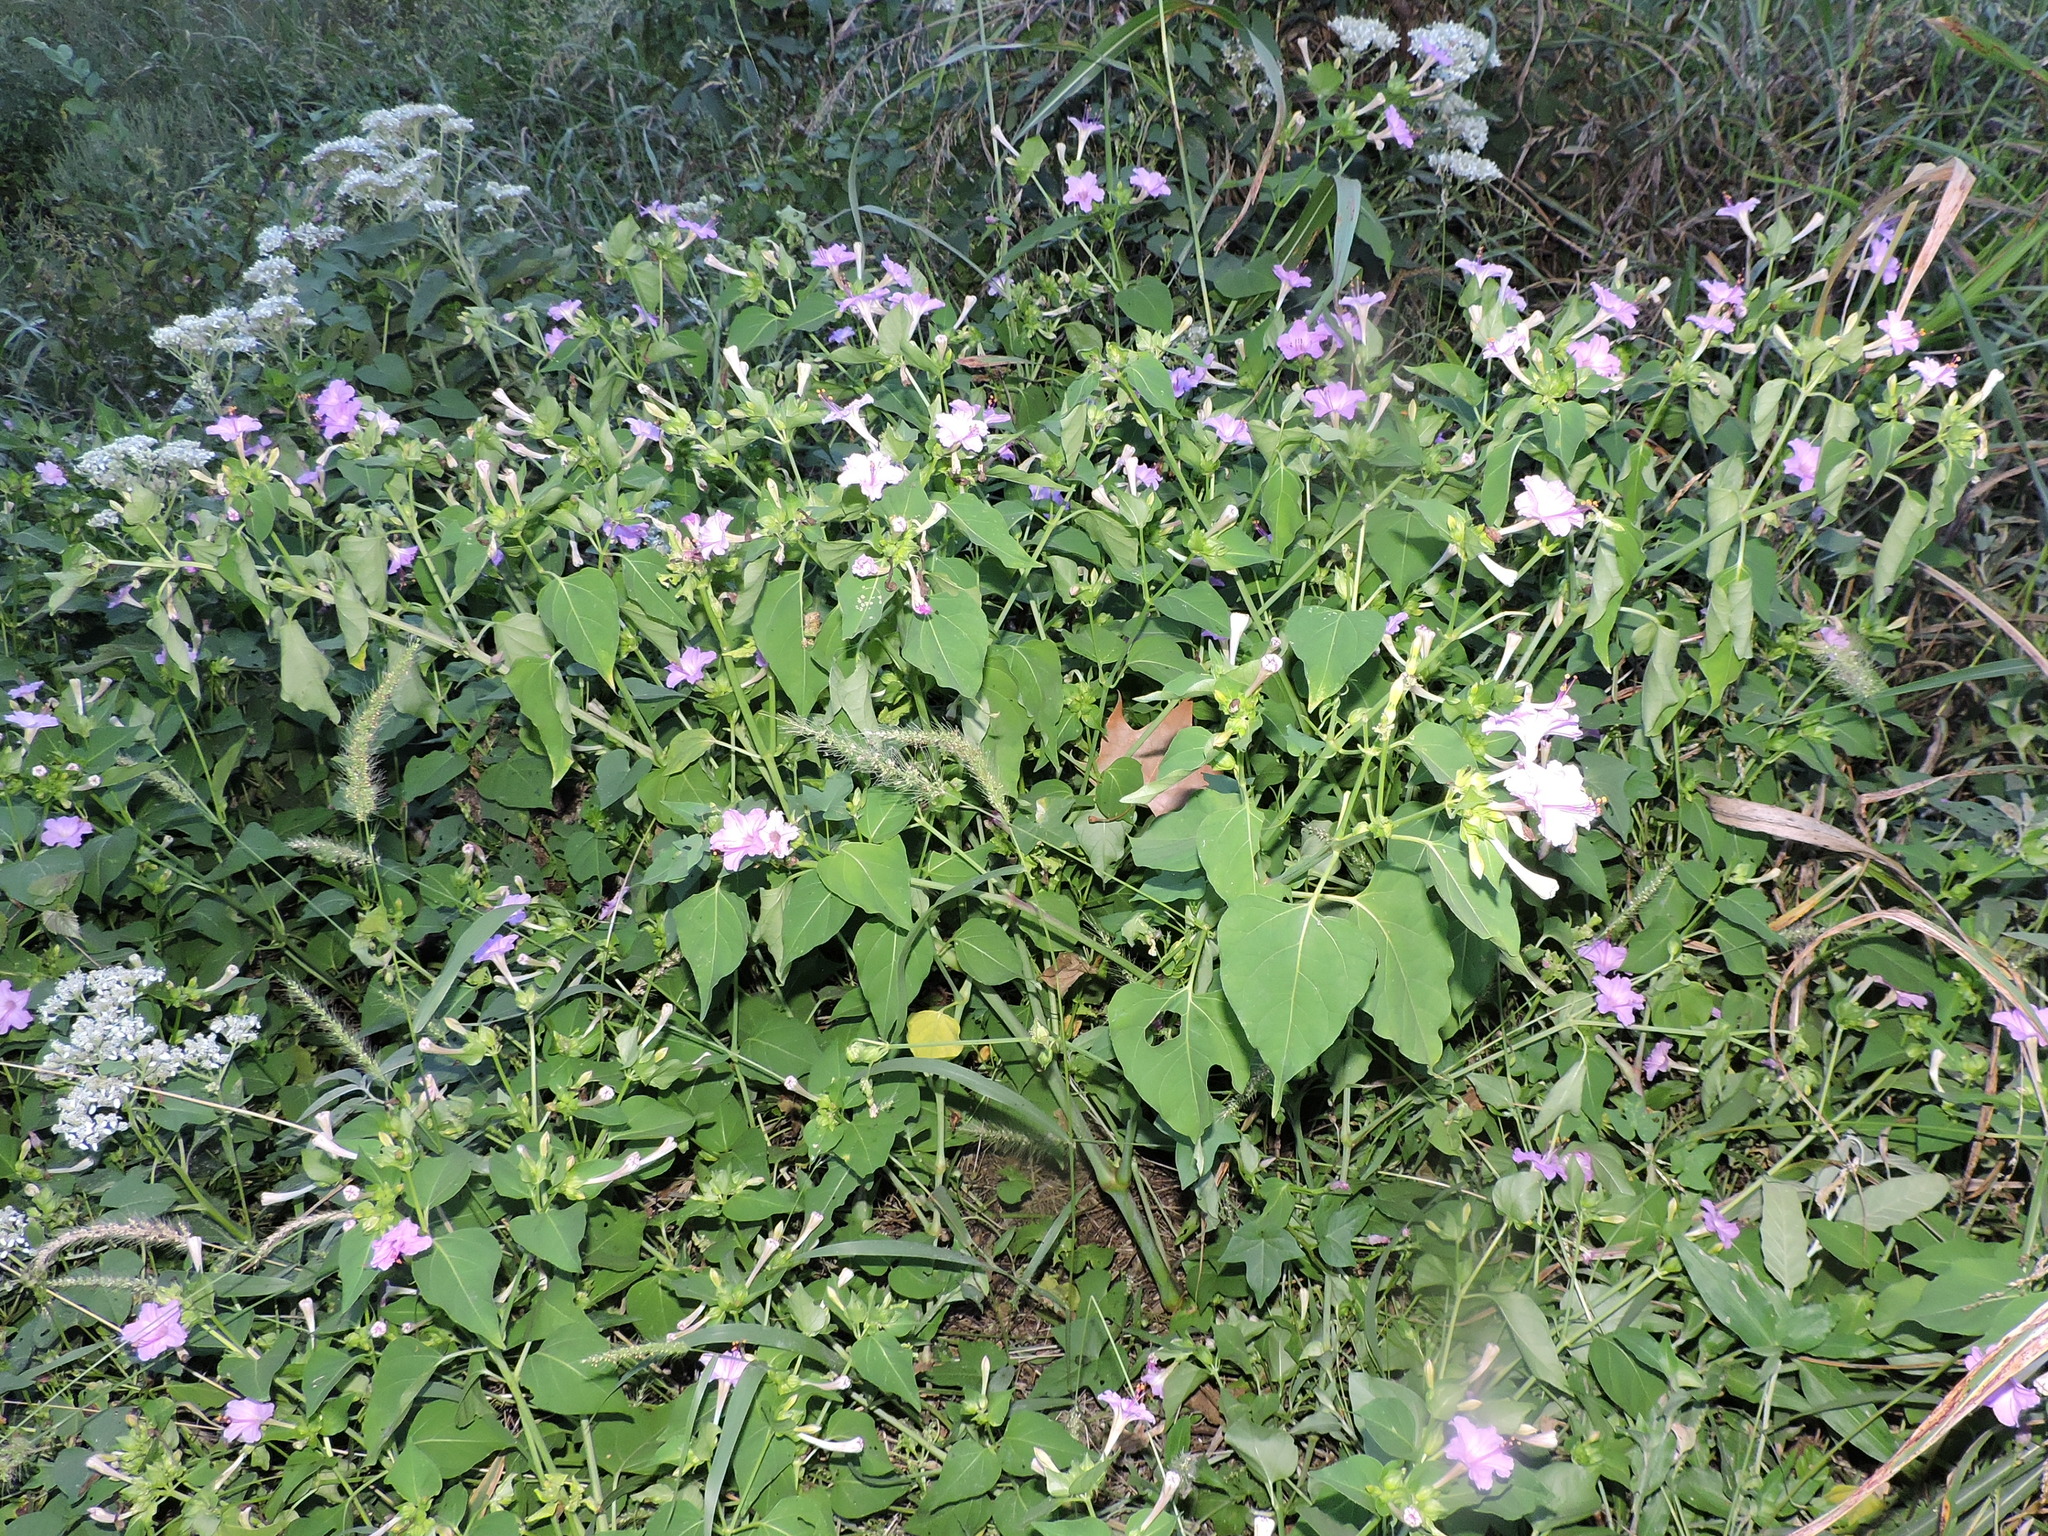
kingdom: Plantae
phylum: Tracheophyta
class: Magnoliopsida
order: Caryophyllales
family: Nyctaginaceae
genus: Mirabilis
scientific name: Mirabilis jalapa
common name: Marvel-of-peru
